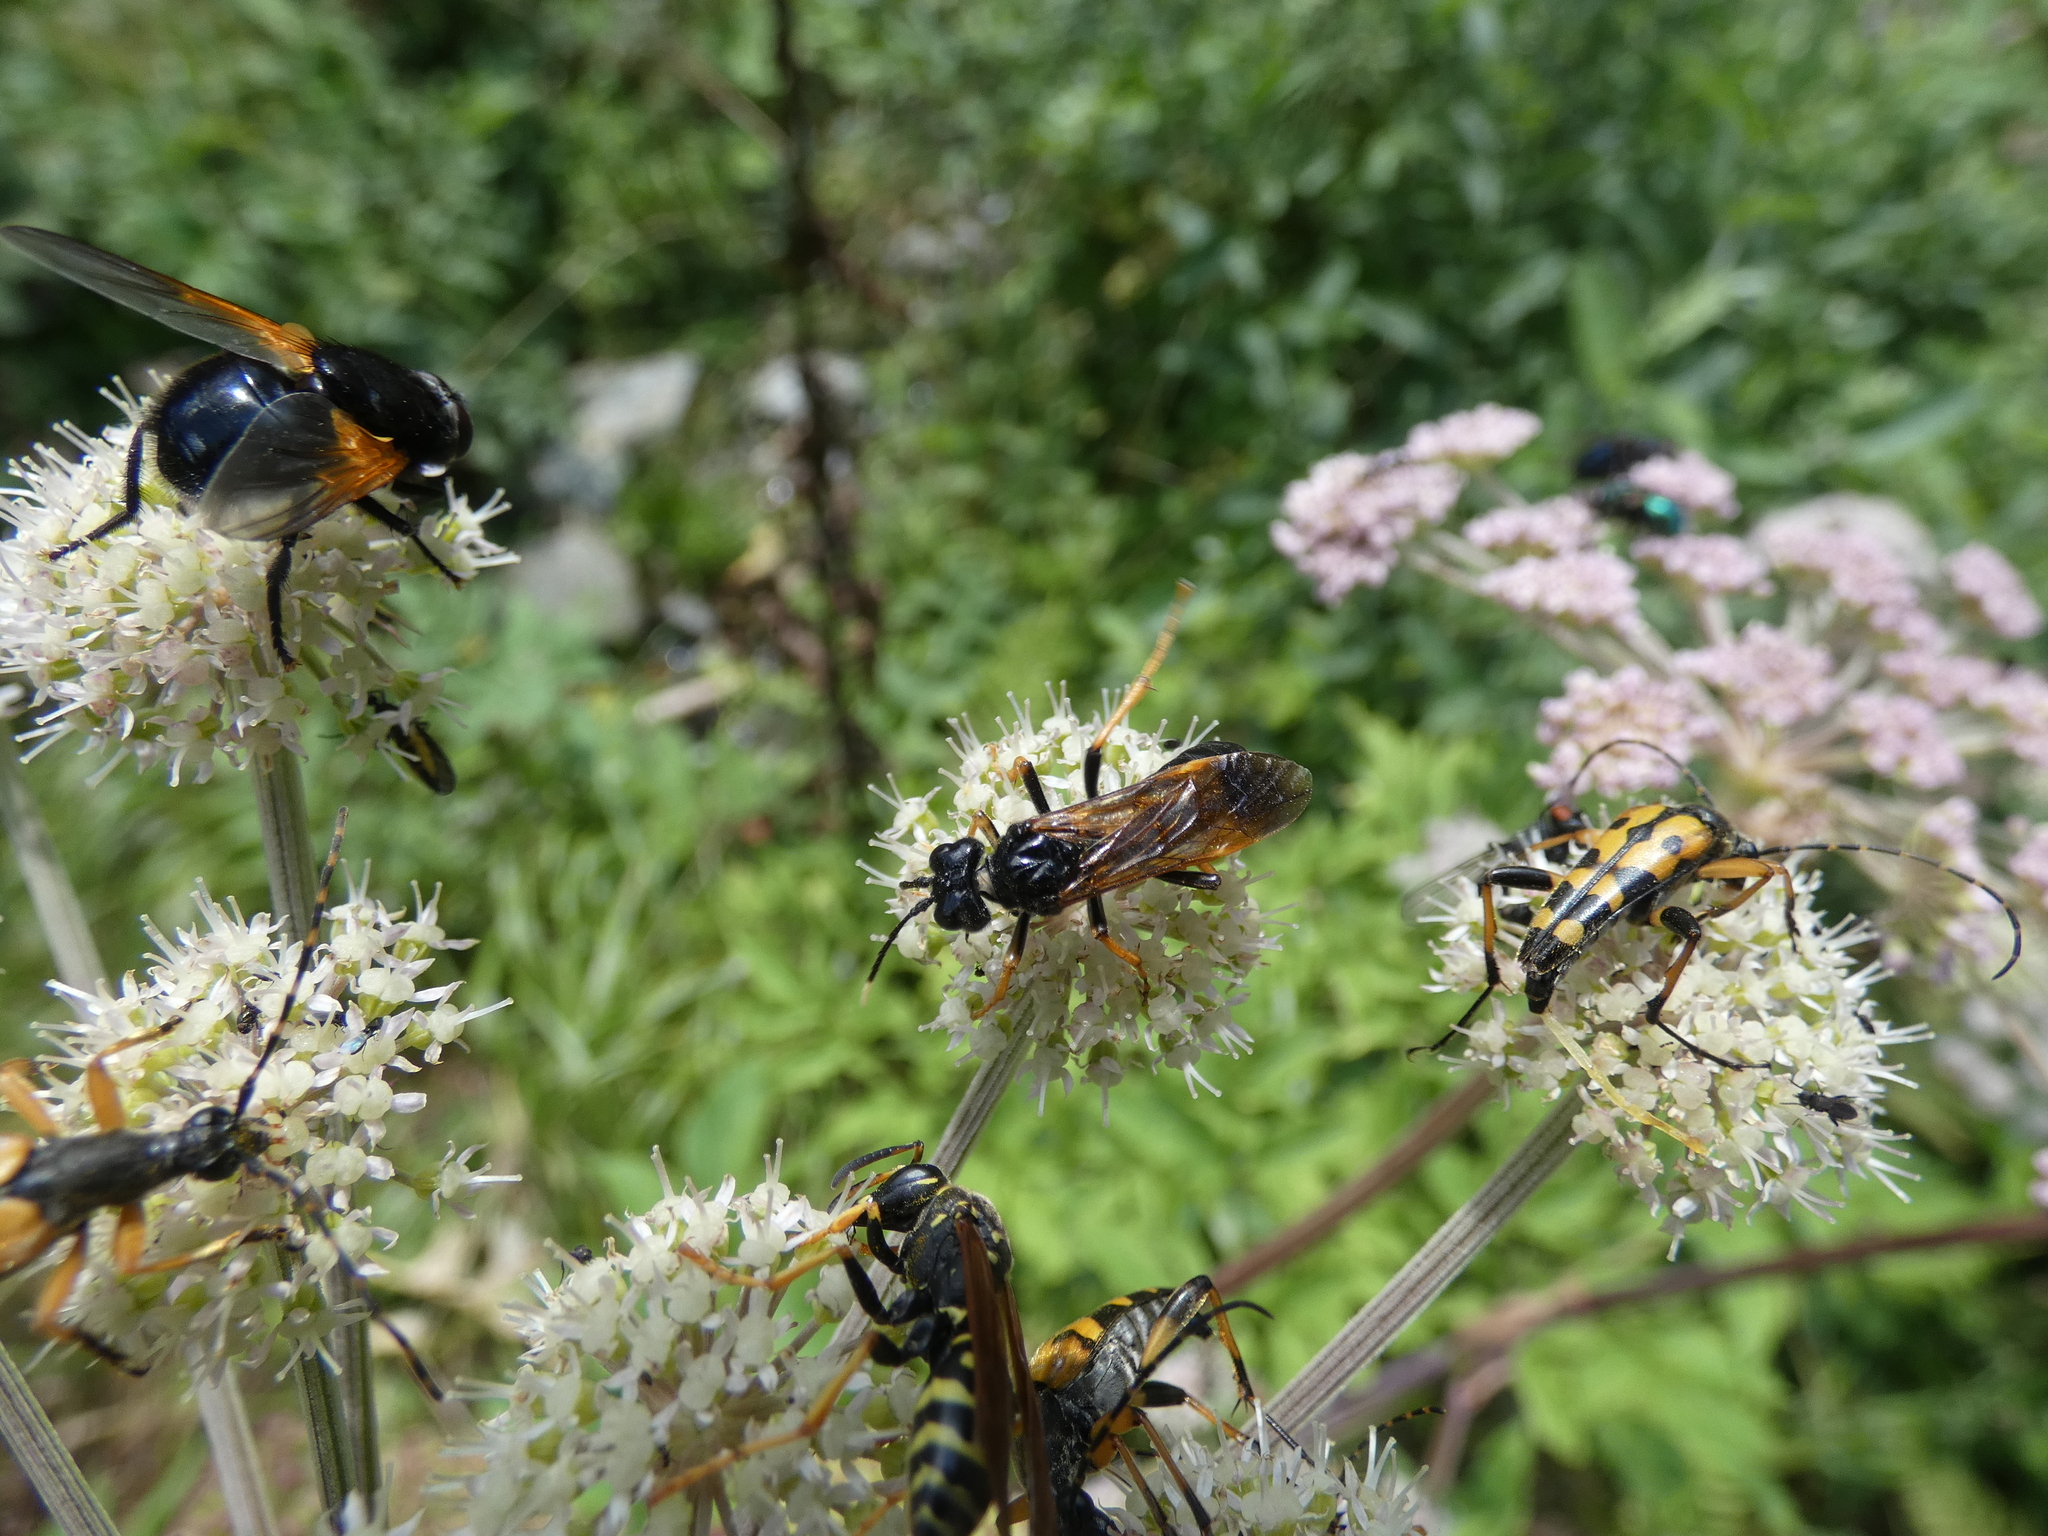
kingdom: Animalia
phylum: Arthropoda
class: Insecta
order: Hymenoptera
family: Tenthredinidae
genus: Tenthredo
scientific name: Tenthredo crassa
